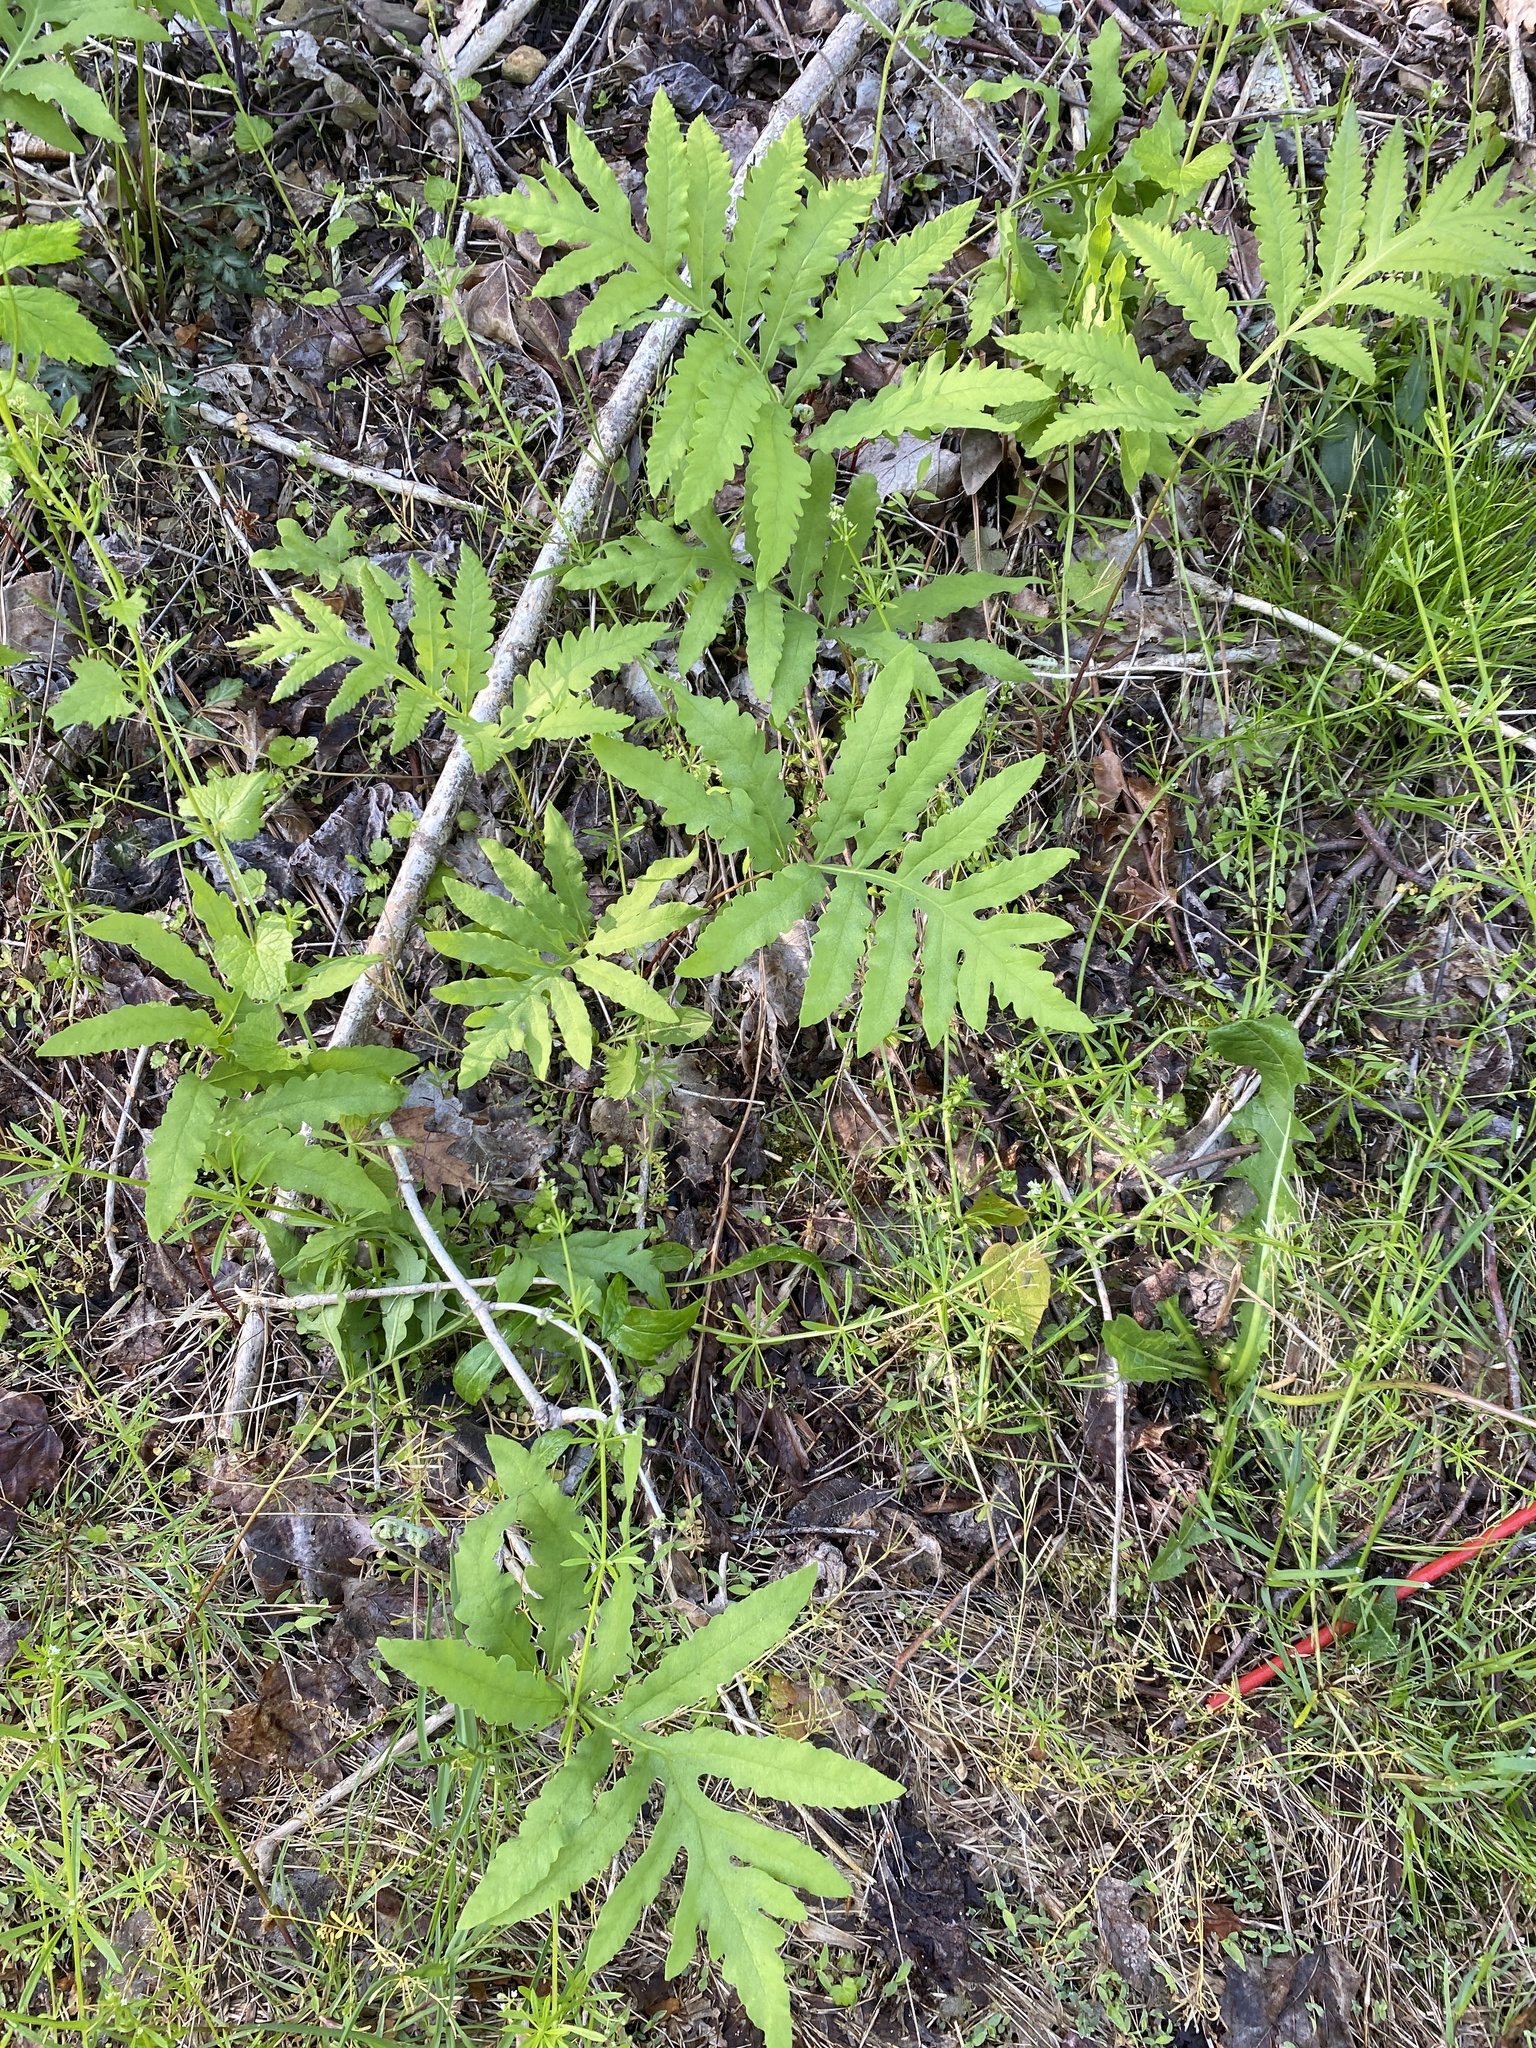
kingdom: Plantae
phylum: Tracheophyta
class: Polypodiopsida
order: Polypodiales
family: Onocleaceae
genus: Onoclea
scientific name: Onoclea sensibilis
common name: Sensitive fern
